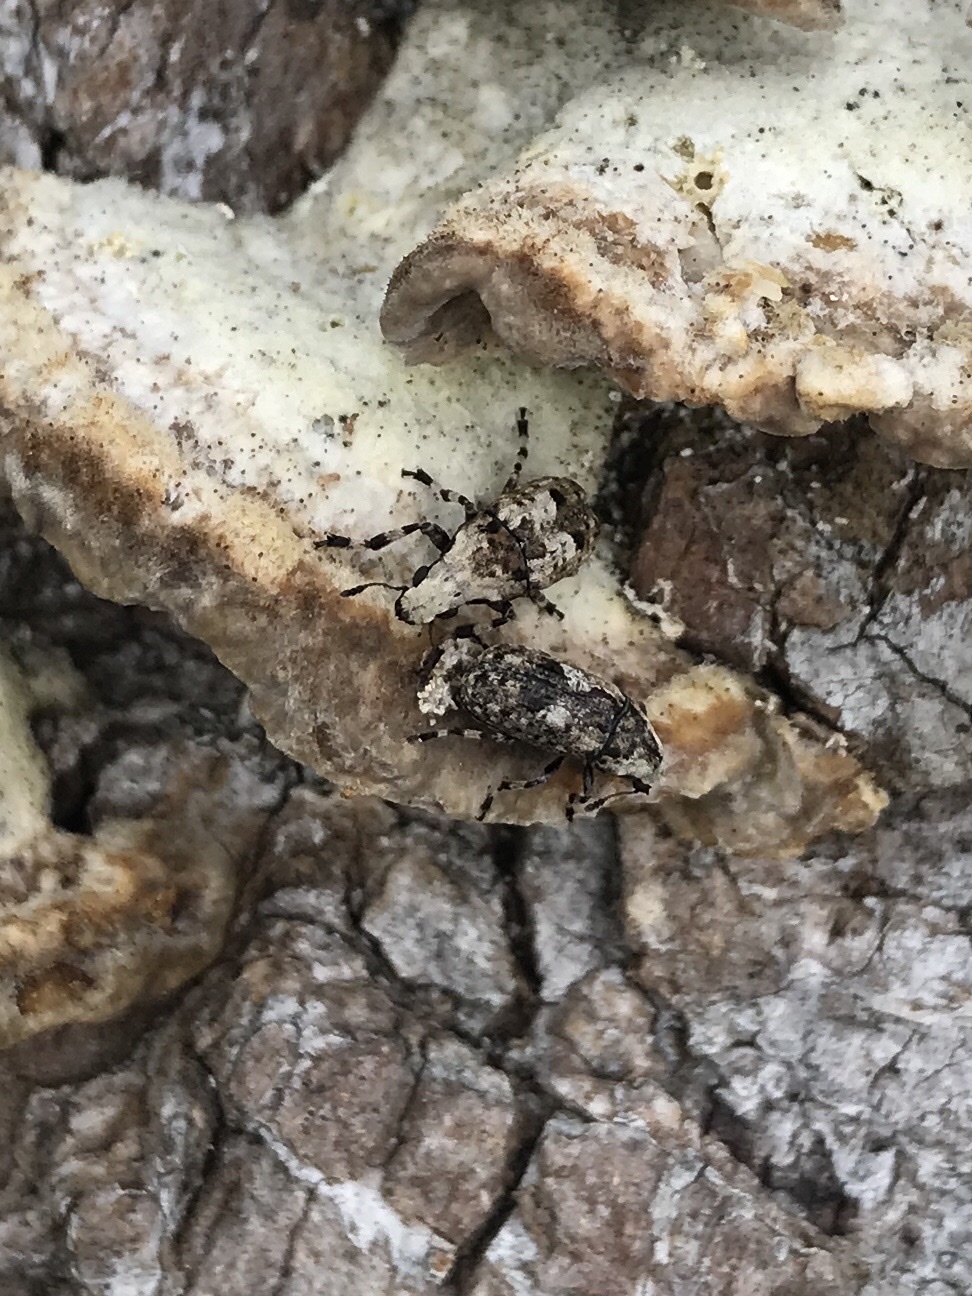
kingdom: Animalia
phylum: Arthropoda
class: Insecta
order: Coleoptera
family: Anthribidae
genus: Euparius
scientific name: Euparius marmoreus
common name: Marbled fungus weevil
